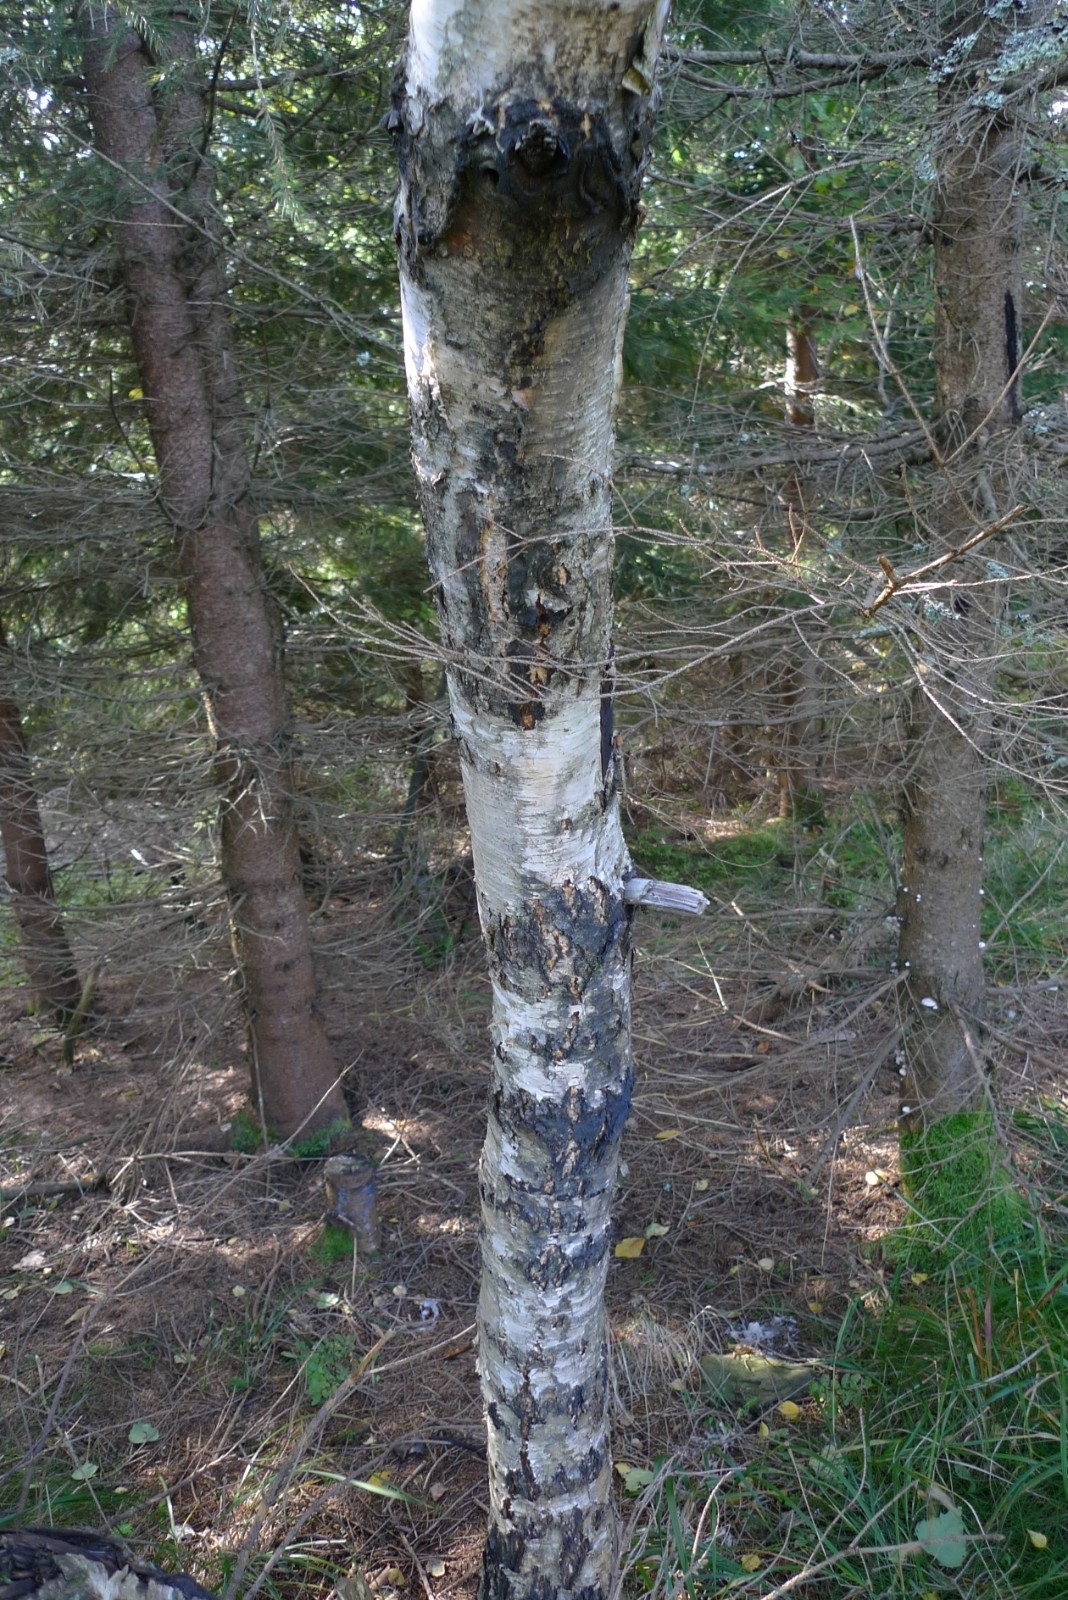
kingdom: Plantae
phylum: Tracheophyta
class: Magnoliopsida
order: Fagales
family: Betulaceae
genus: Betula
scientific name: Betula pendula
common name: Silver birch
